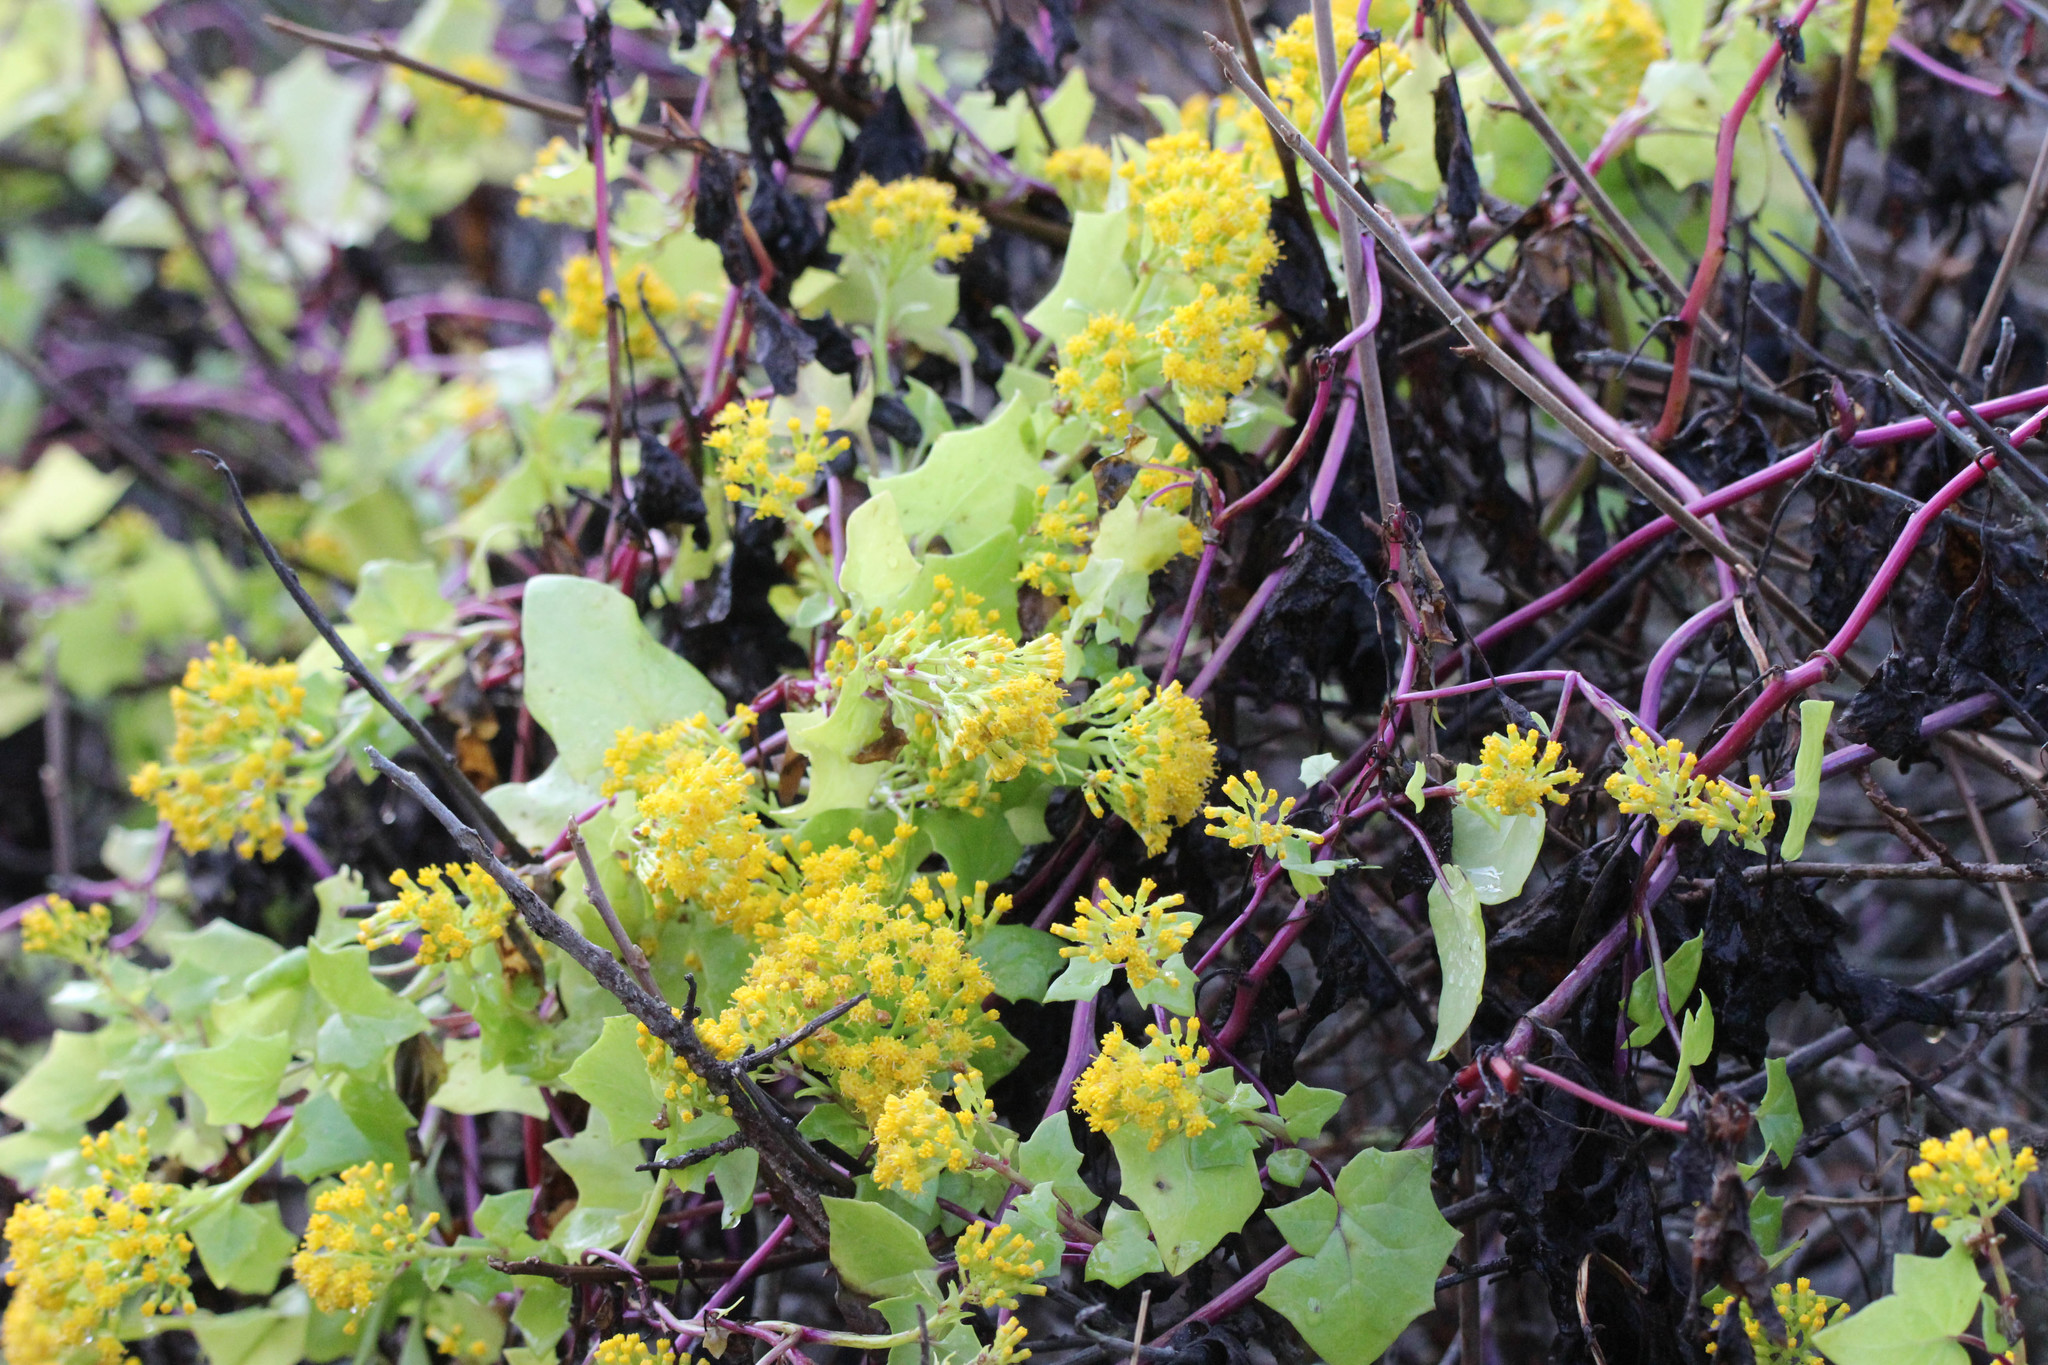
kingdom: Plantae
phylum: Tracheophyta
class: Magnoliopsida
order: Asterales
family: Asteraceae
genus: Delairea
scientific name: Delairea odorata
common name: Cape-ivy
